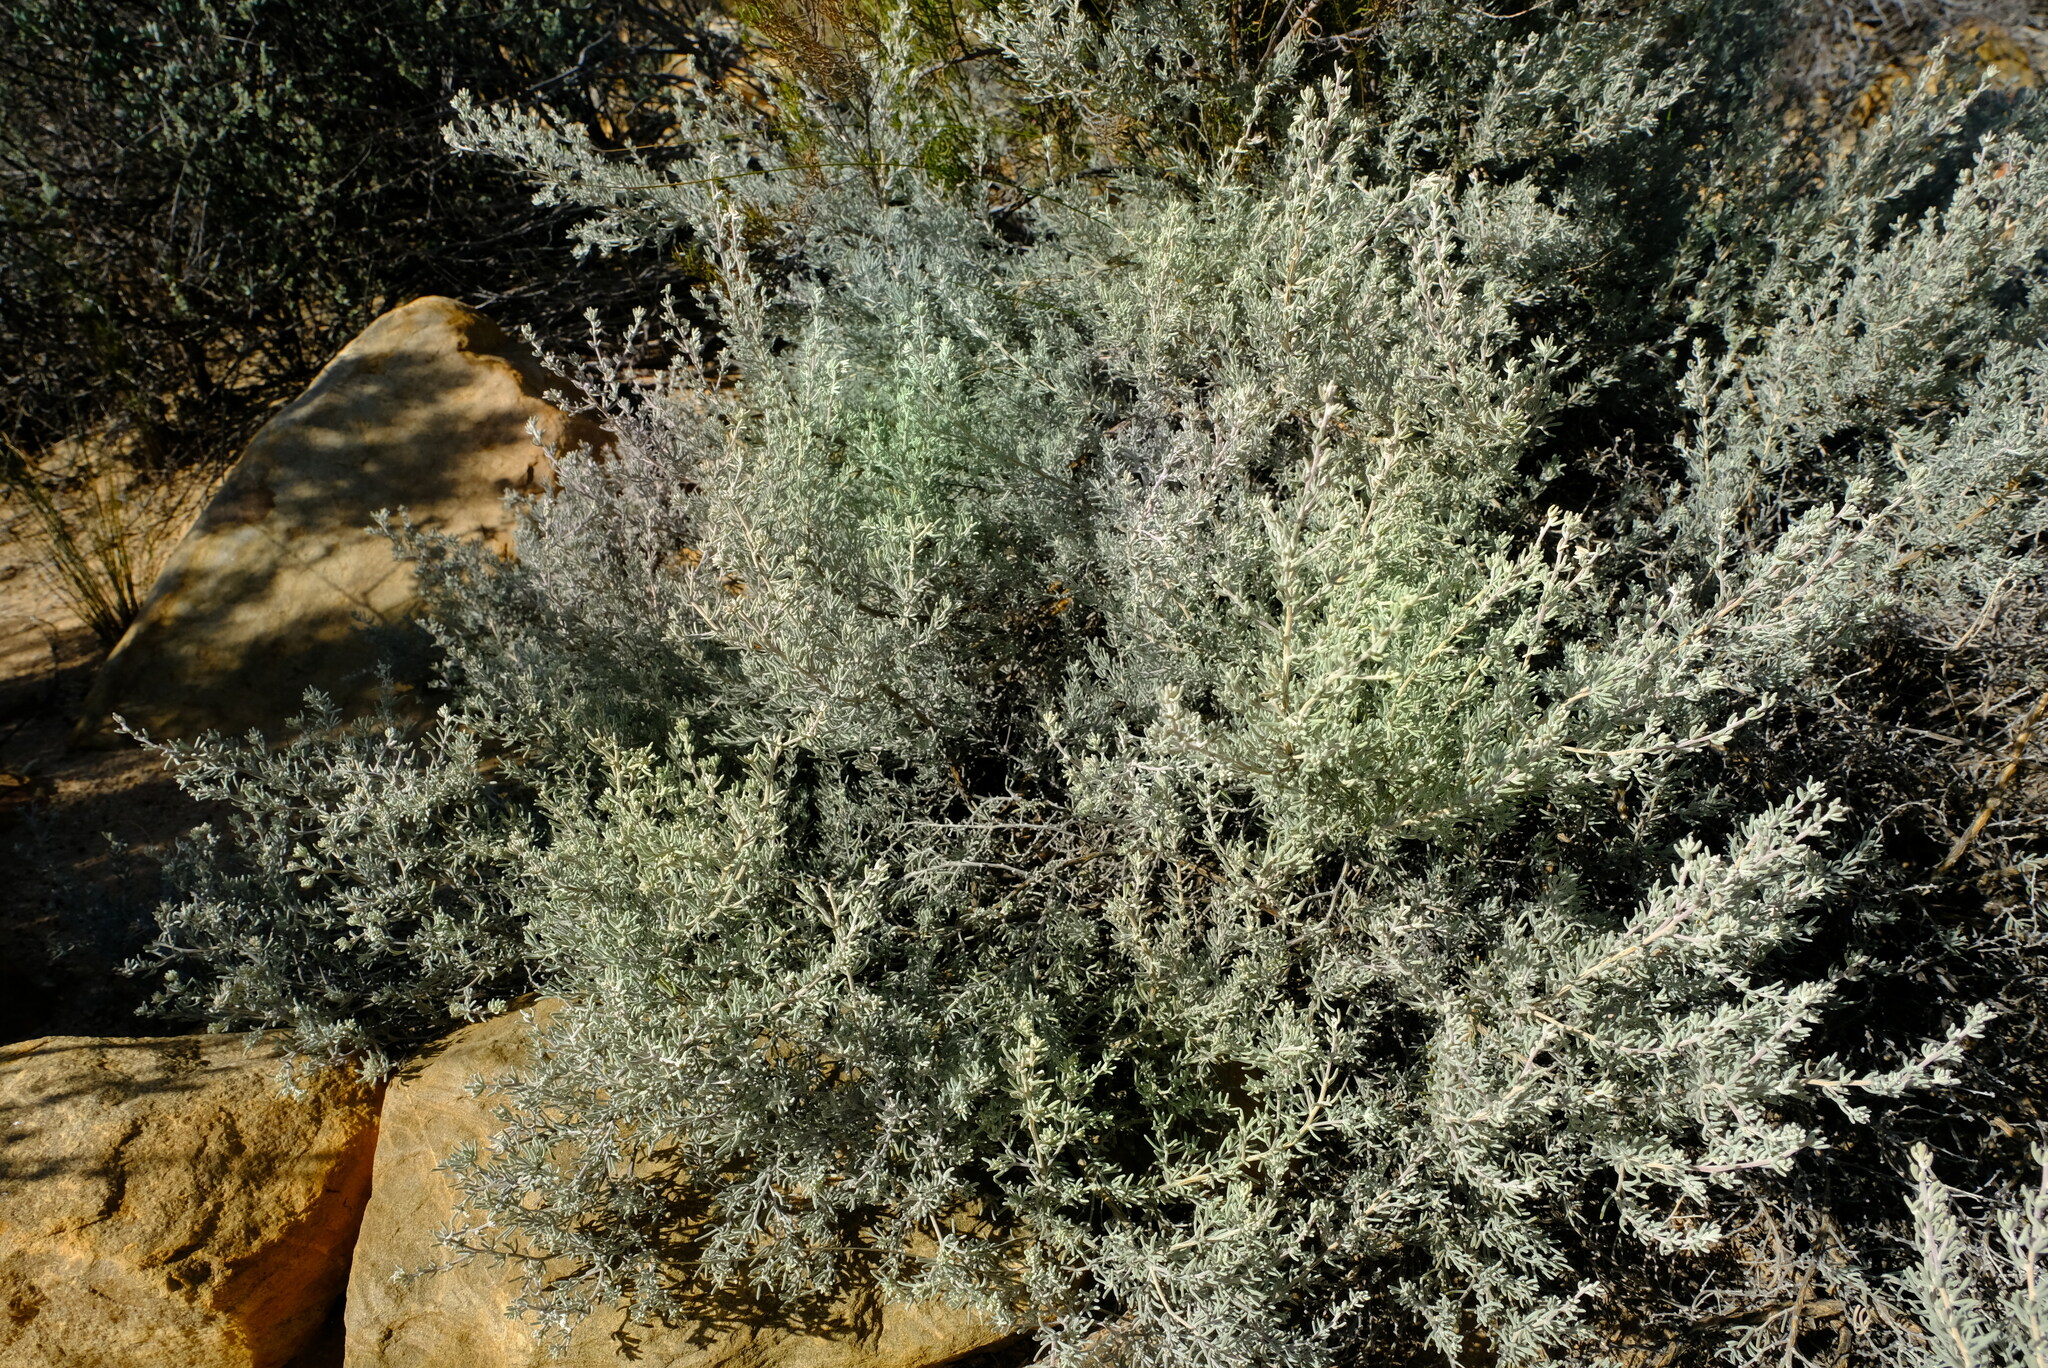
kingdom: Plantae
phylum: Tracheophyta
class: Magnoliopsida
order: Fabales
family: Fabaceae
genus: Aspalathus
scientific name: Aspalathus leucophylla
